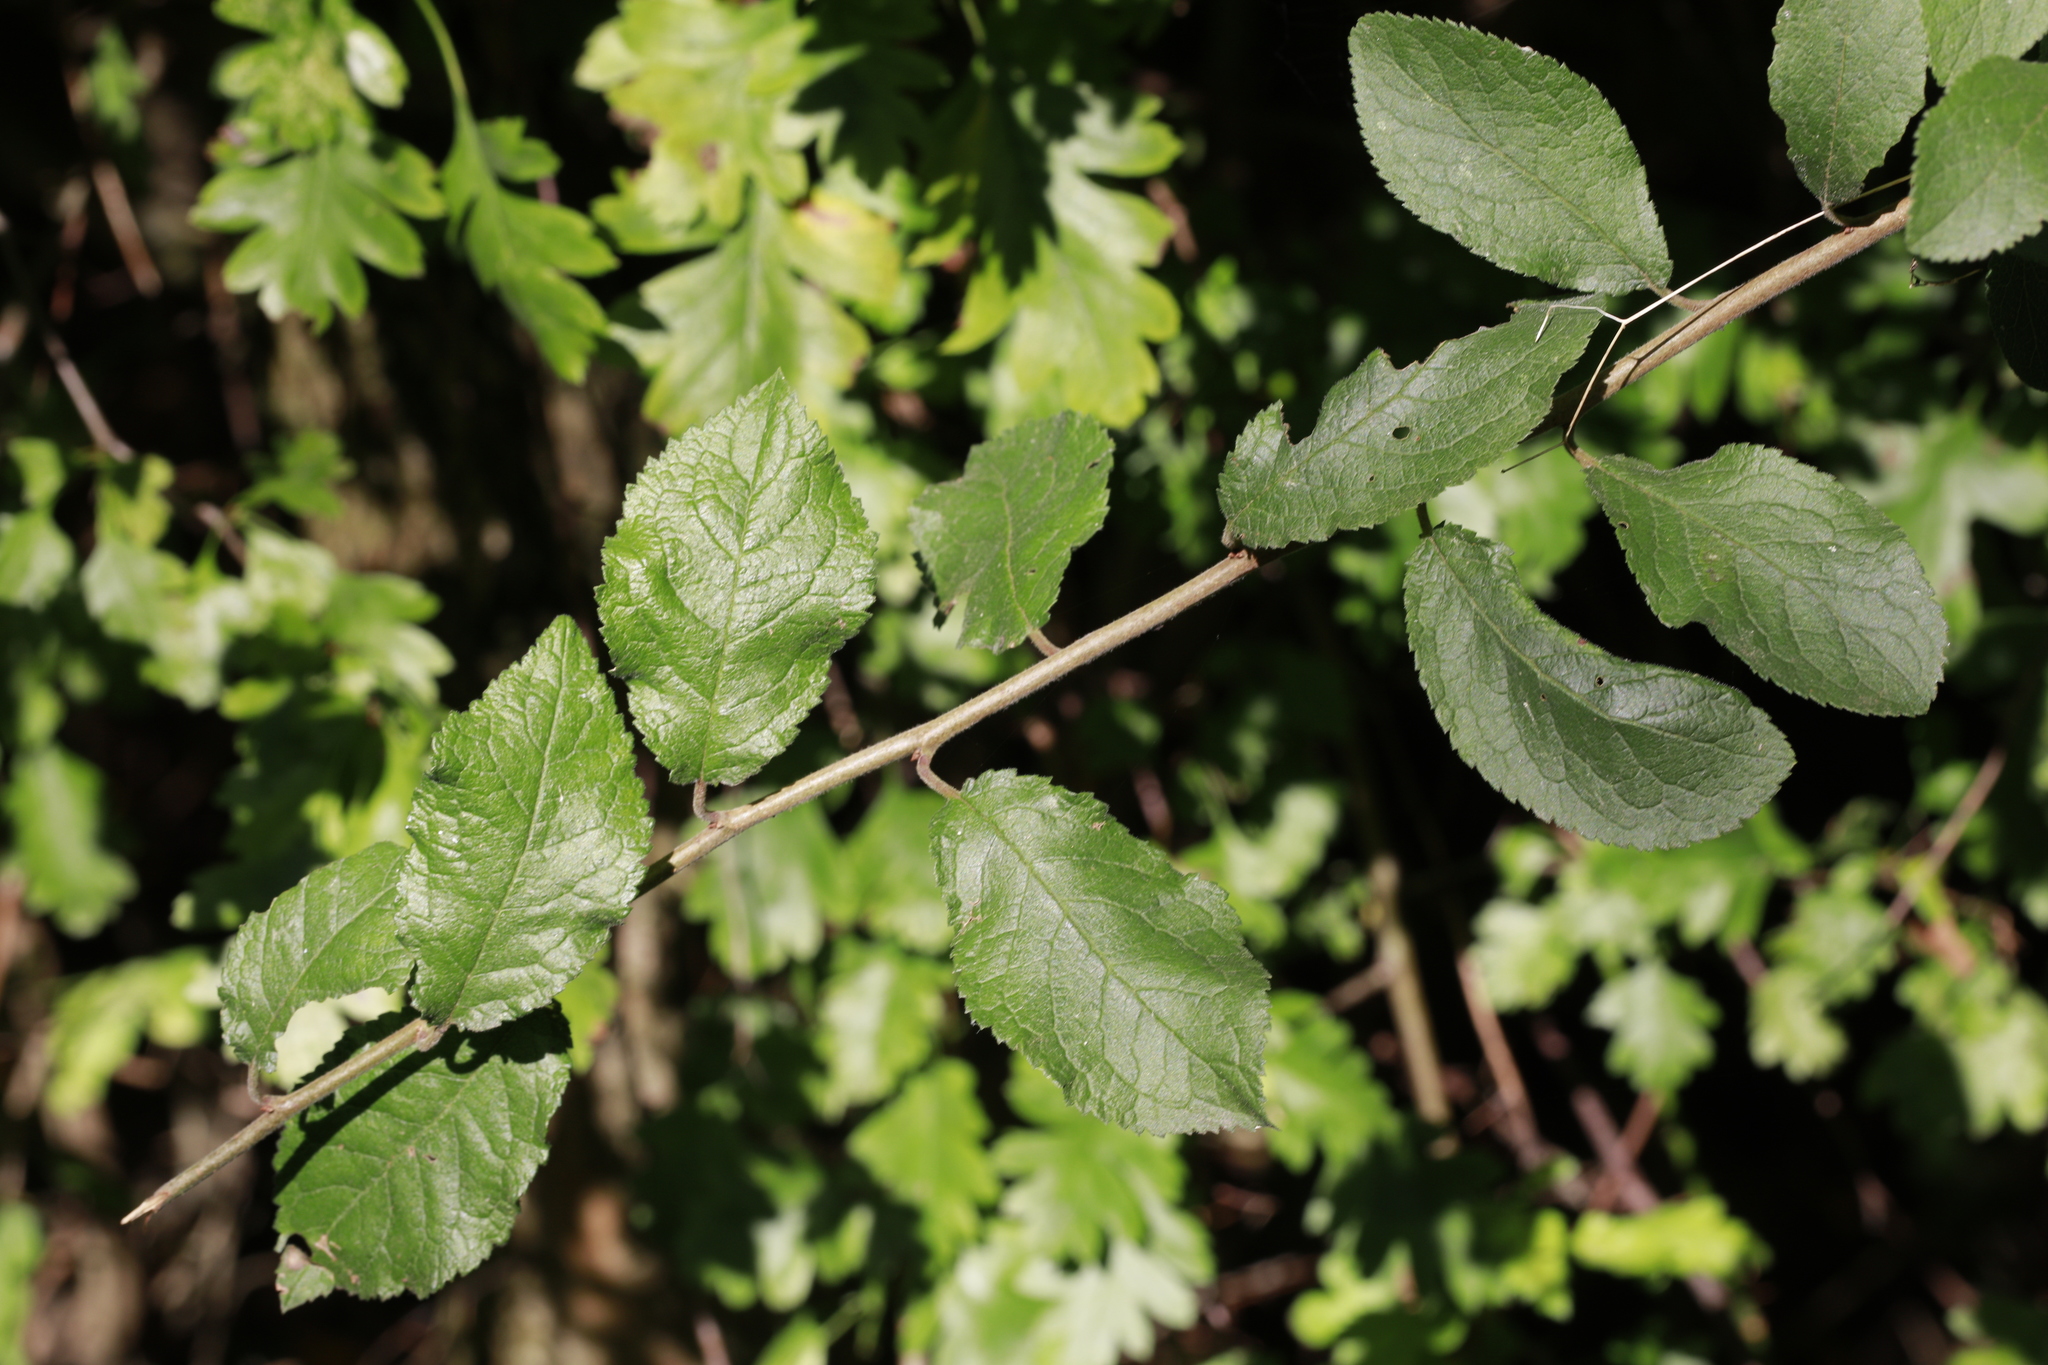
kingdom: Plantae
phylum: Tracheophyta
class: Magnoliopsida
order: Rosales
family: Rosaceae
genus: Prunus
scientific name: Prunus spinosa
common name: Blackthorn
